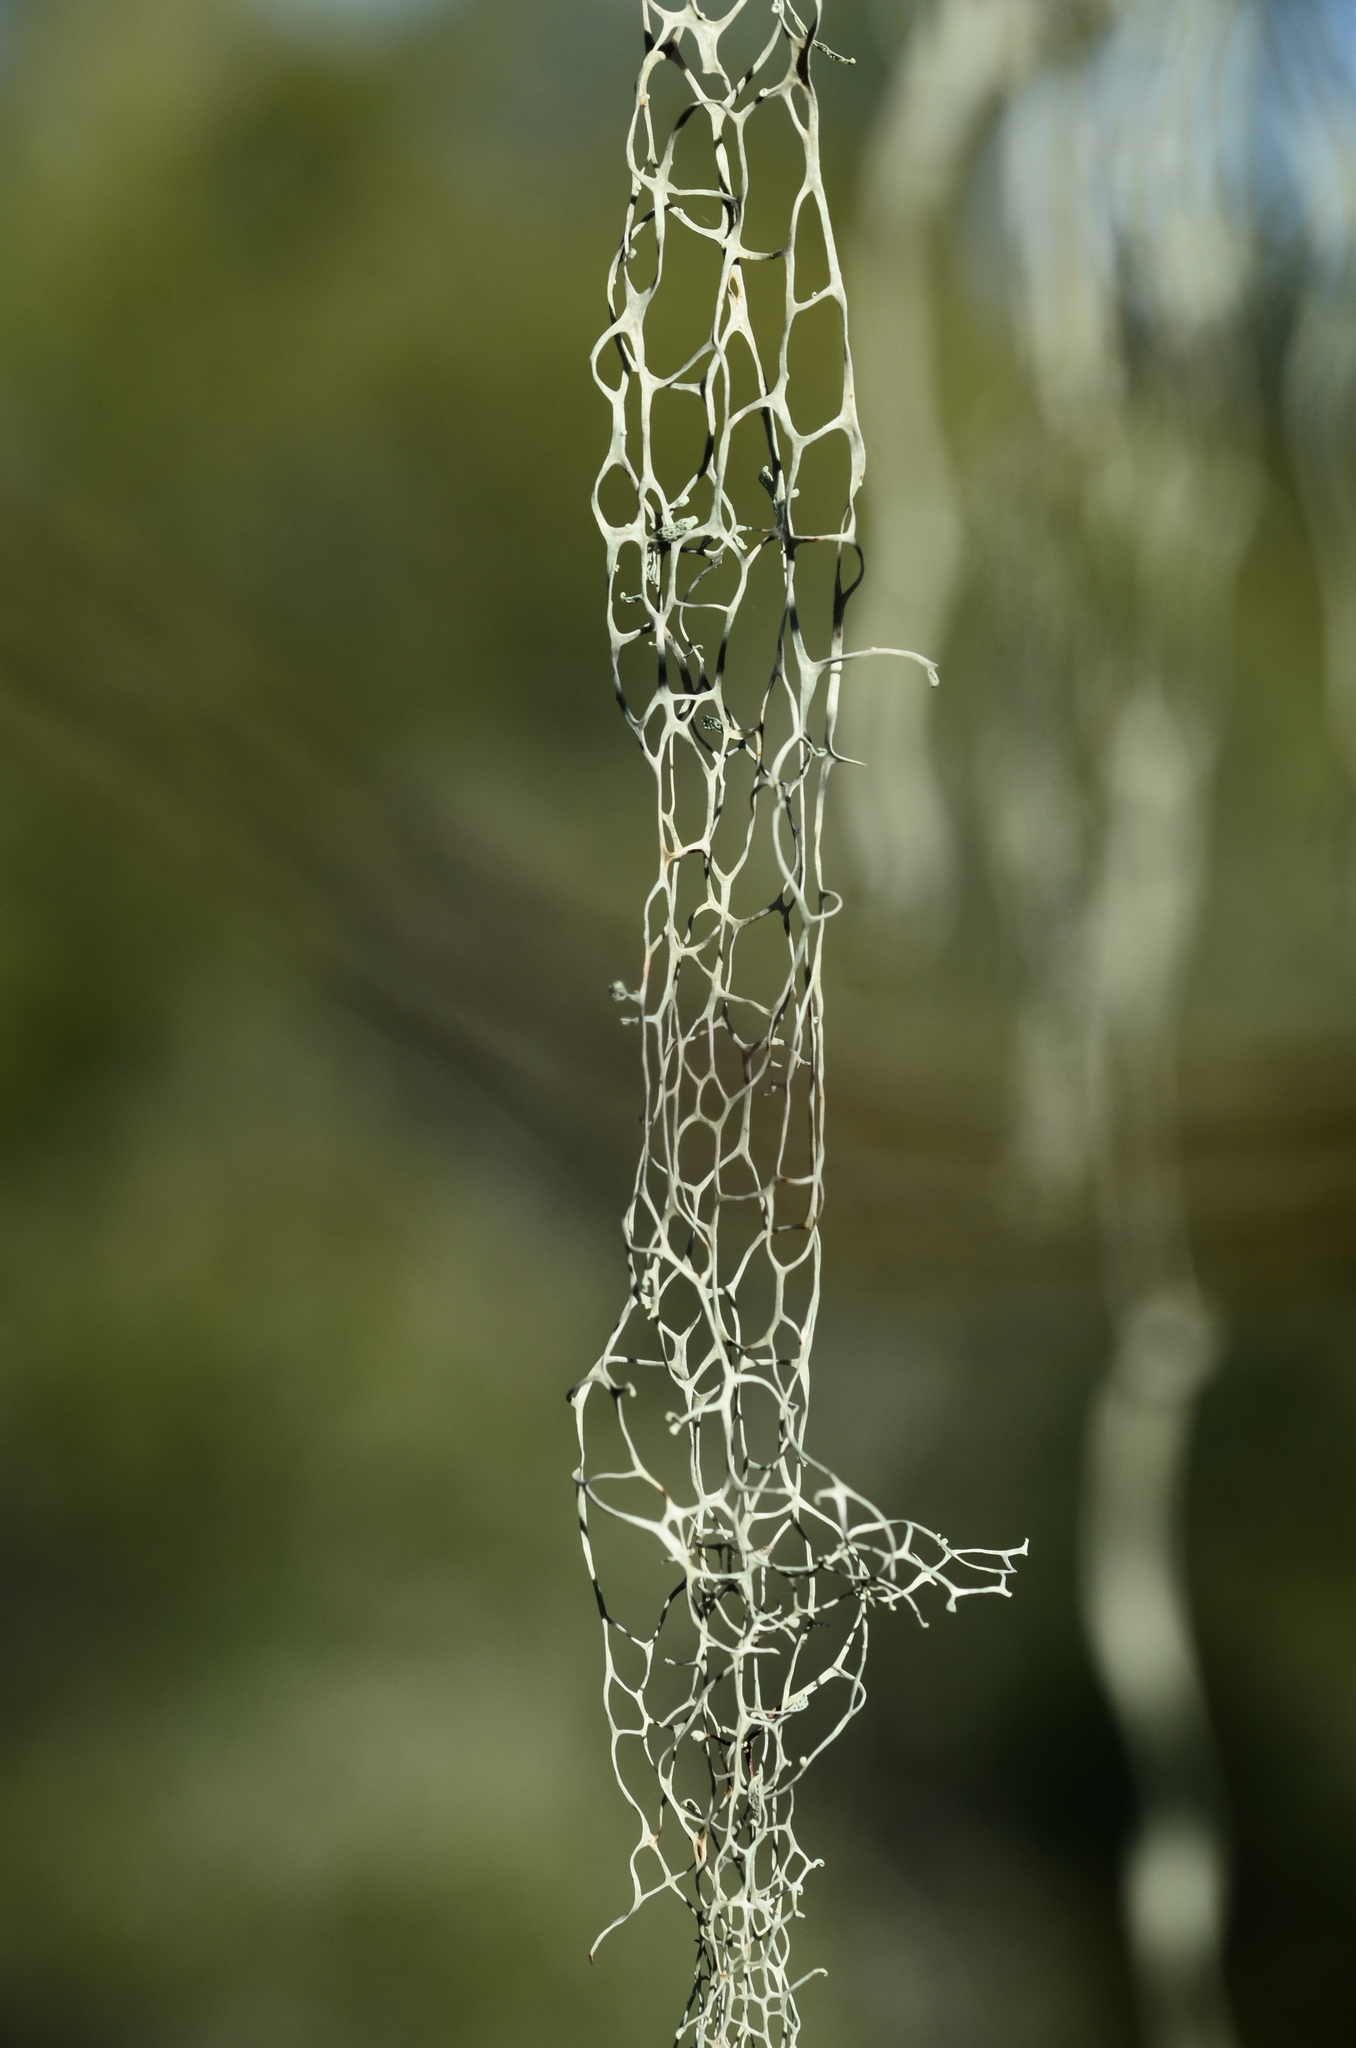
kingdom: Fungi
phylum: Ascomycota
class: Lecanoromycetes
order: Lecanorales
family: Ramalinaceae
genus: Ramalina
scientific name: Ramalina menziesii
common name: Lace lichen
